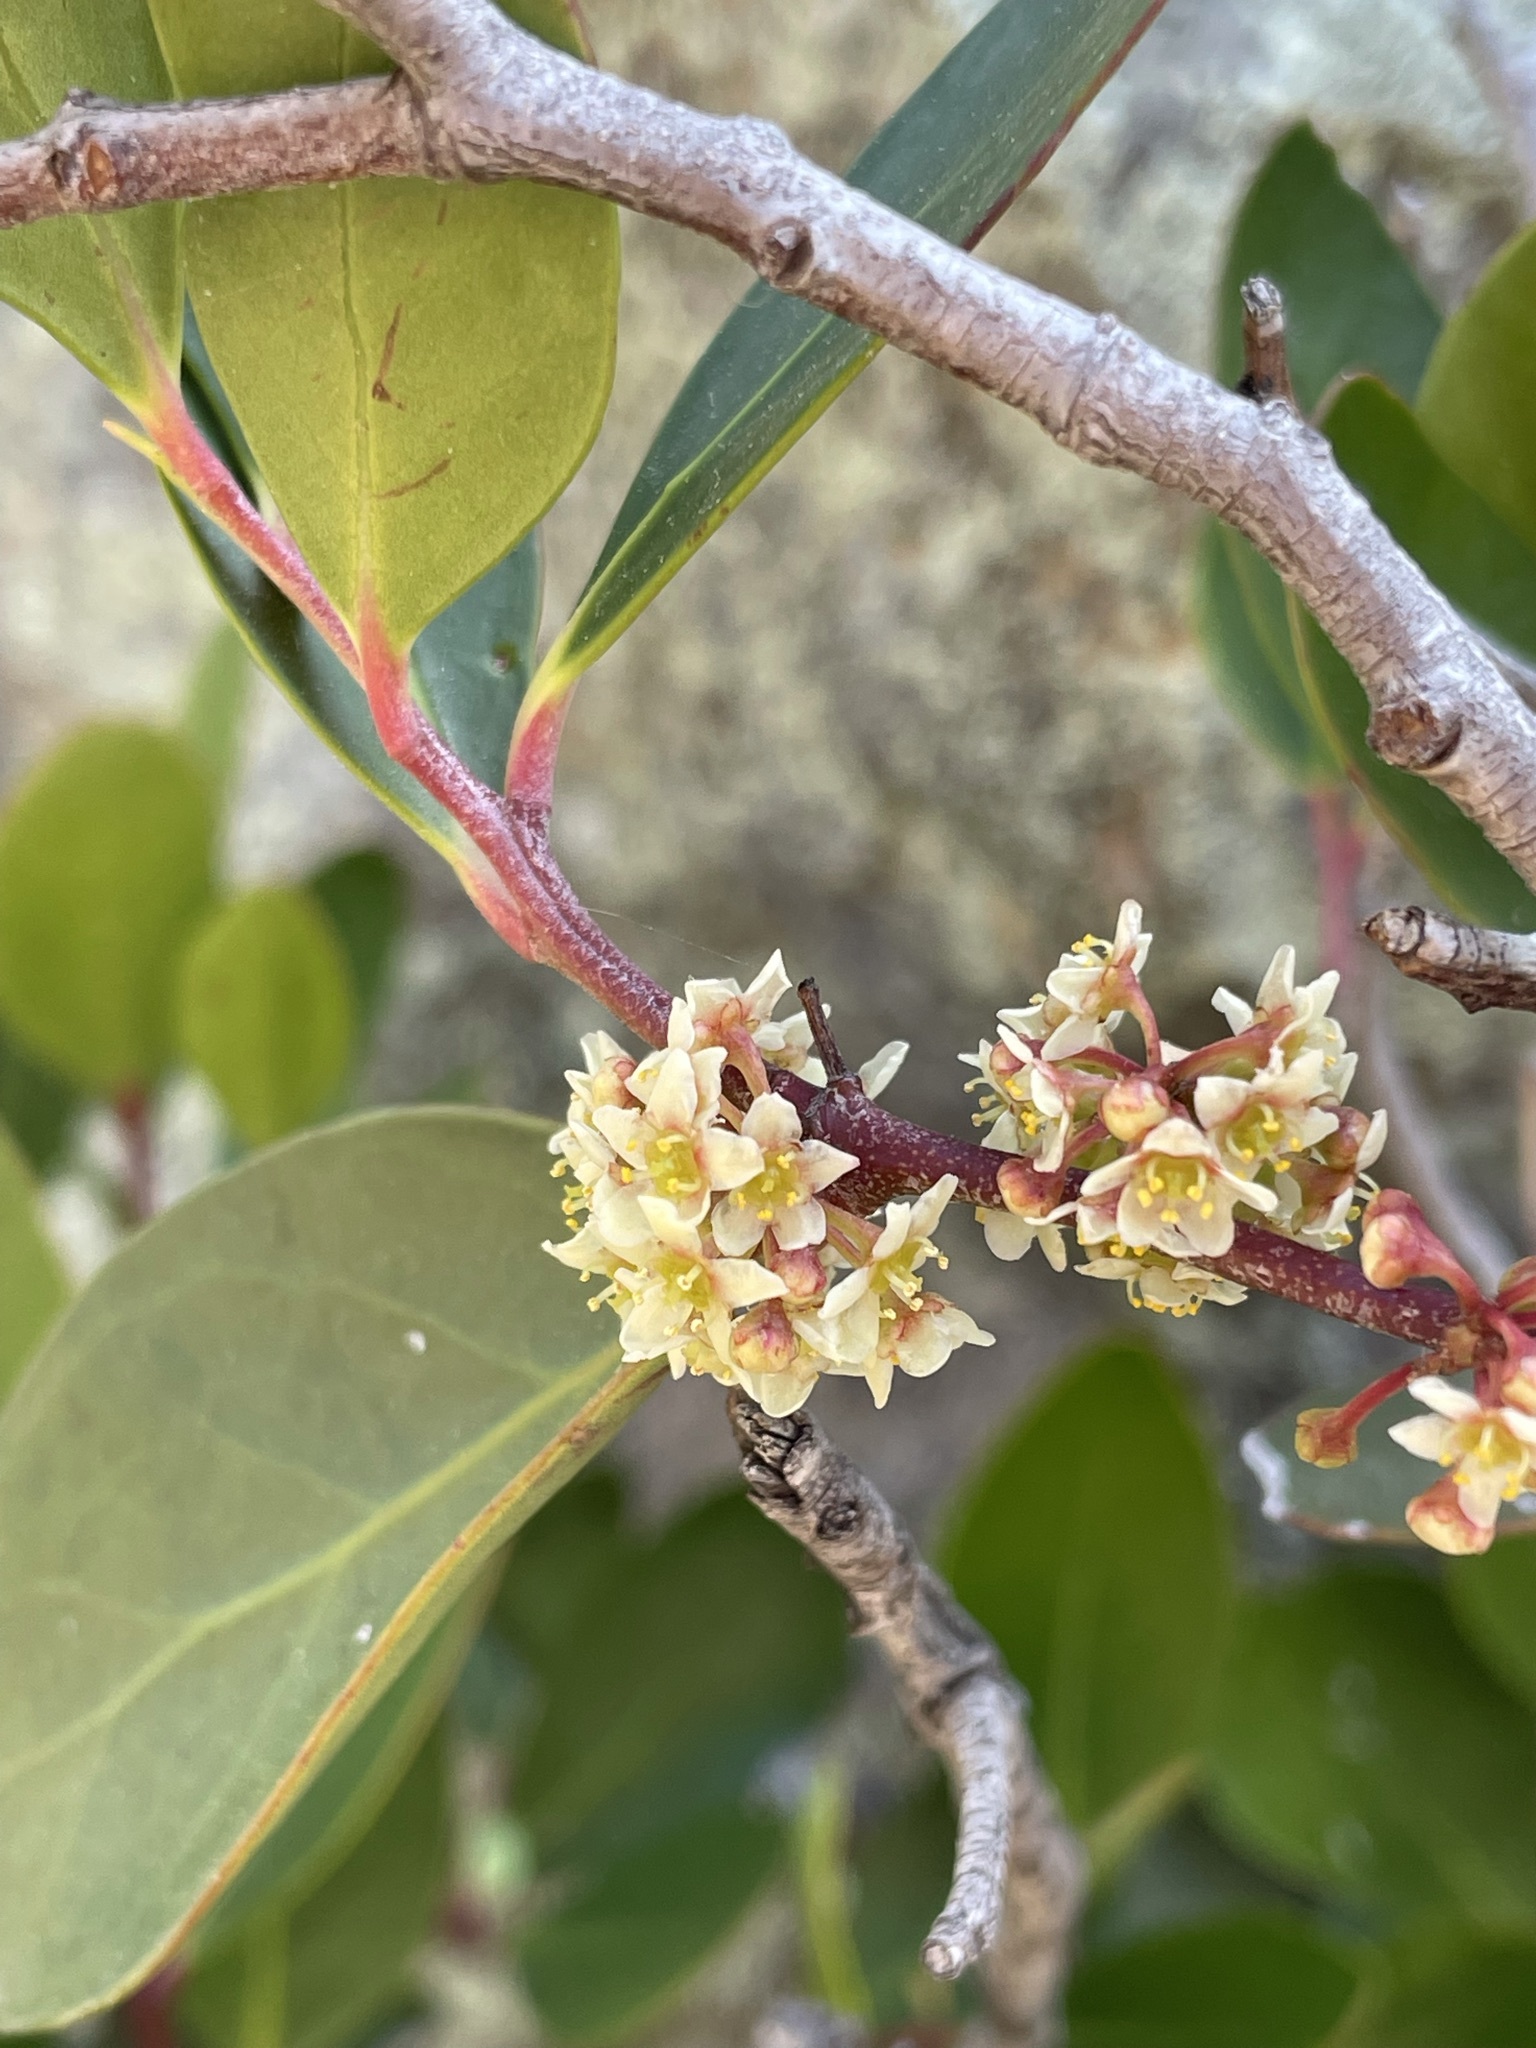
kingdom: Plantae
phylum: Tracheophyta
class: Magnoliopsida
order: Celastrales
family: Celastraceae
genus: Pterocelastrus
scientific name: Pterocelastrus tricuspidatus
